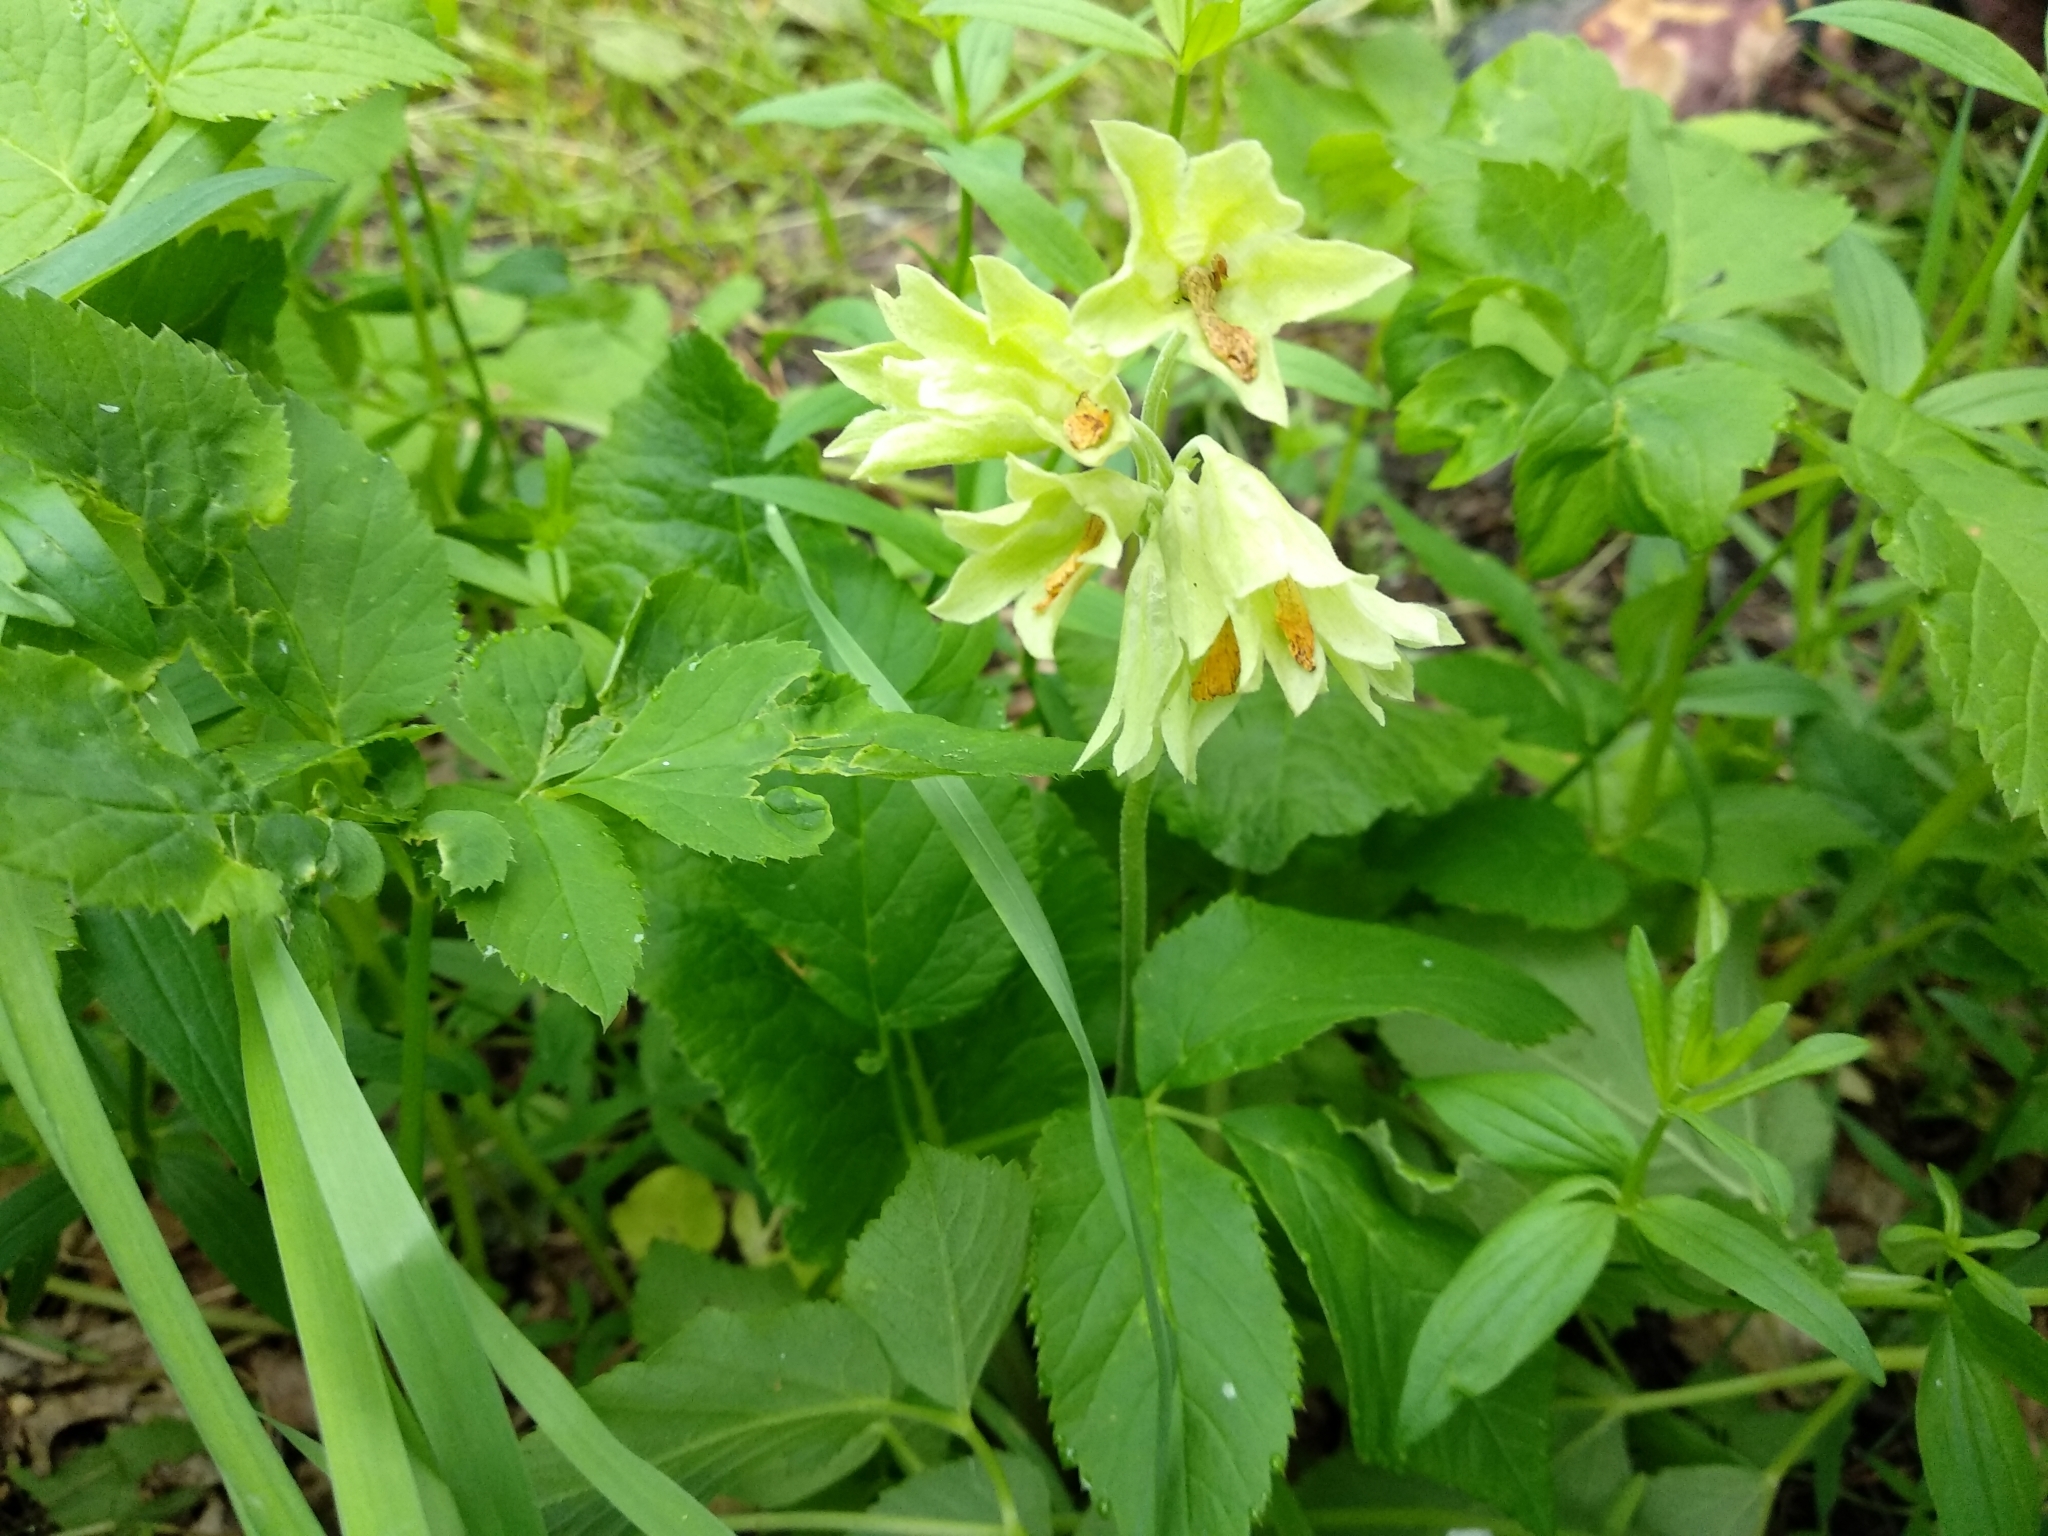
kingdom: Plantae
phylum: Tracheophyta
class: Magnoliopsida
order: Ericales
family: Primulaceae
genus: Primula
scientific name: Primula veris
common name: Cowslip
